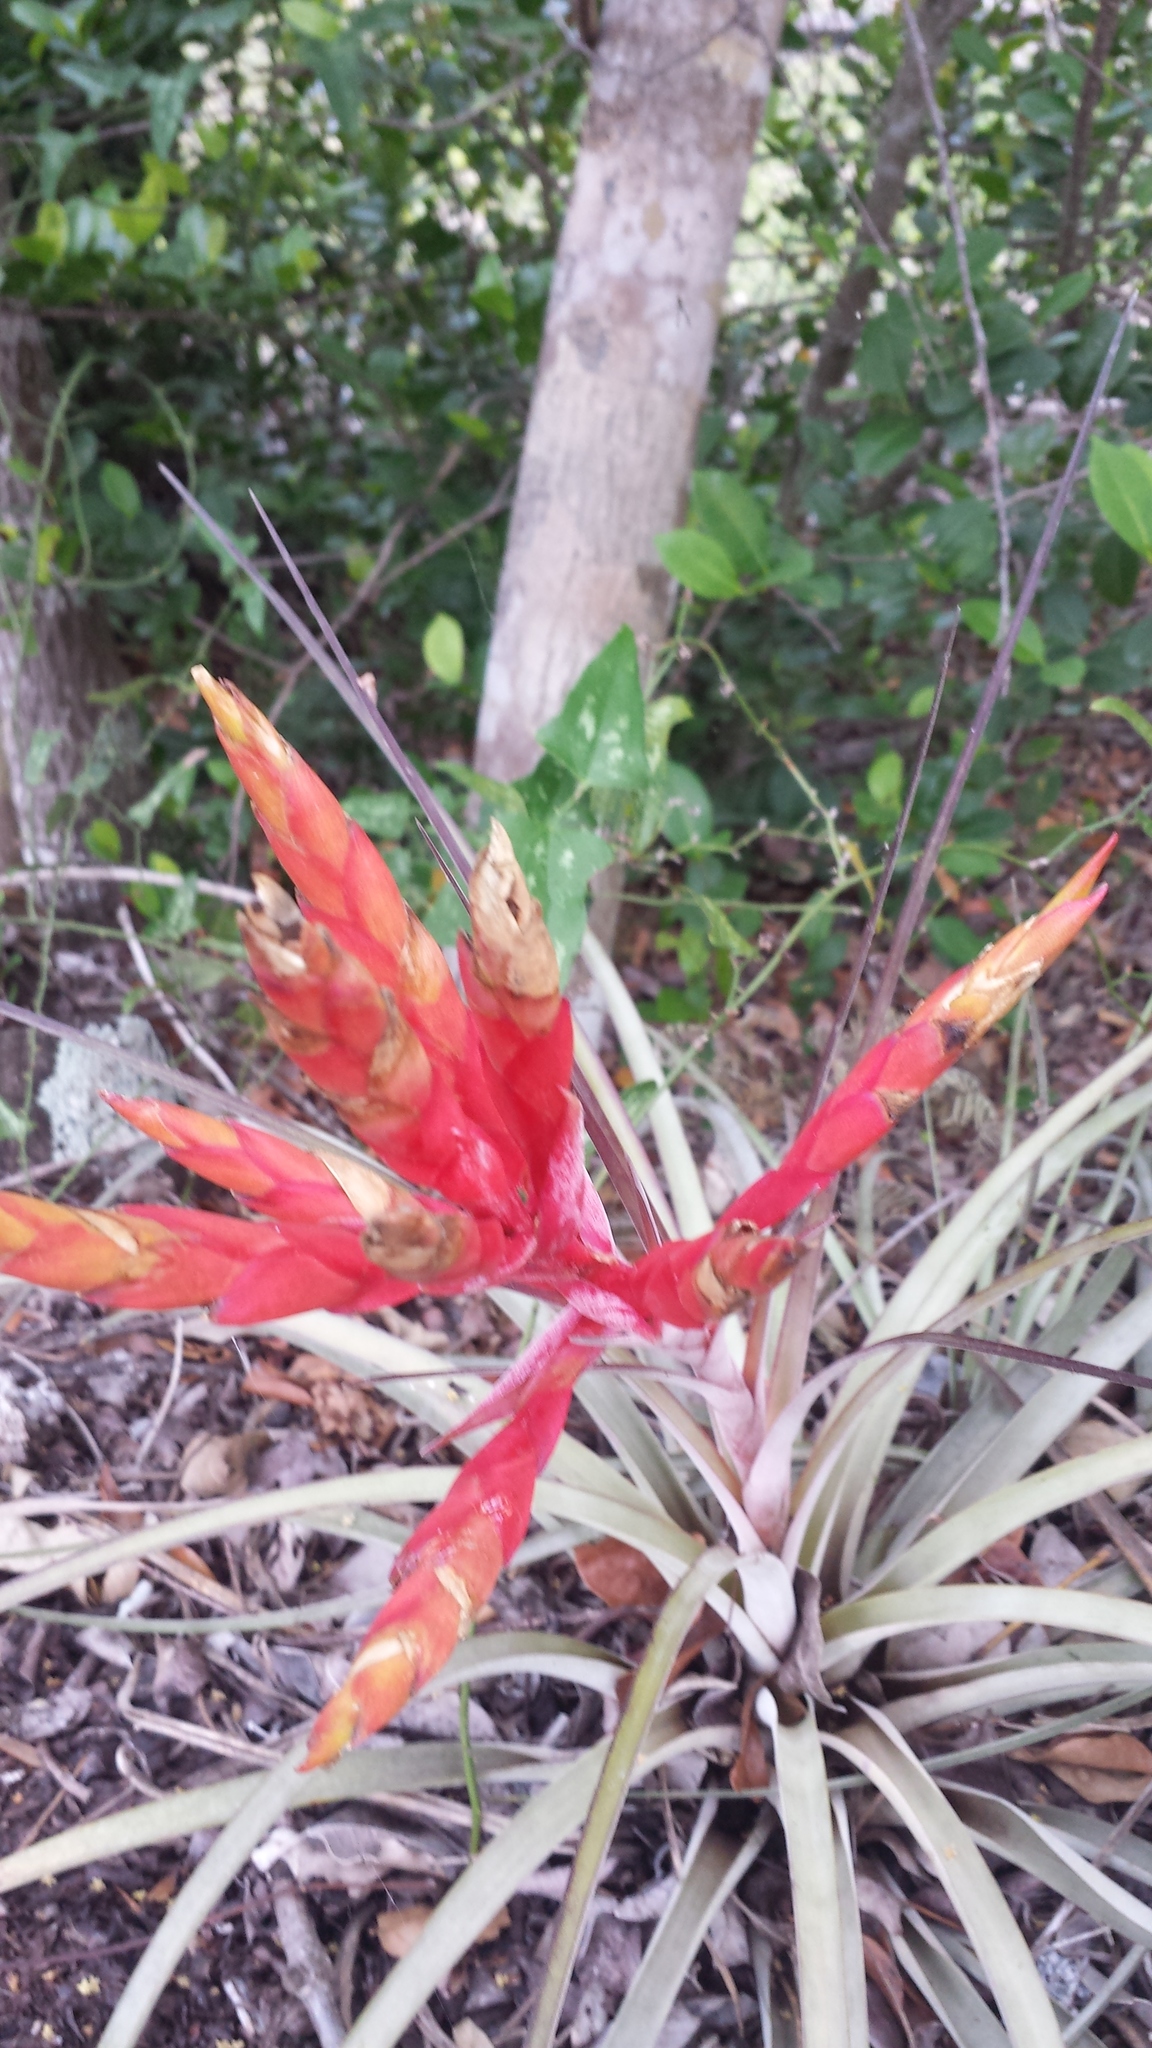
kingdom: Plantae
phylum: Tracheophyta
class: Liliopsida
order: Poales
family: Bromeliaceae
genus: Tillandsia
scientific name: Tillandsia fasciculata
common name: Giant airplant
